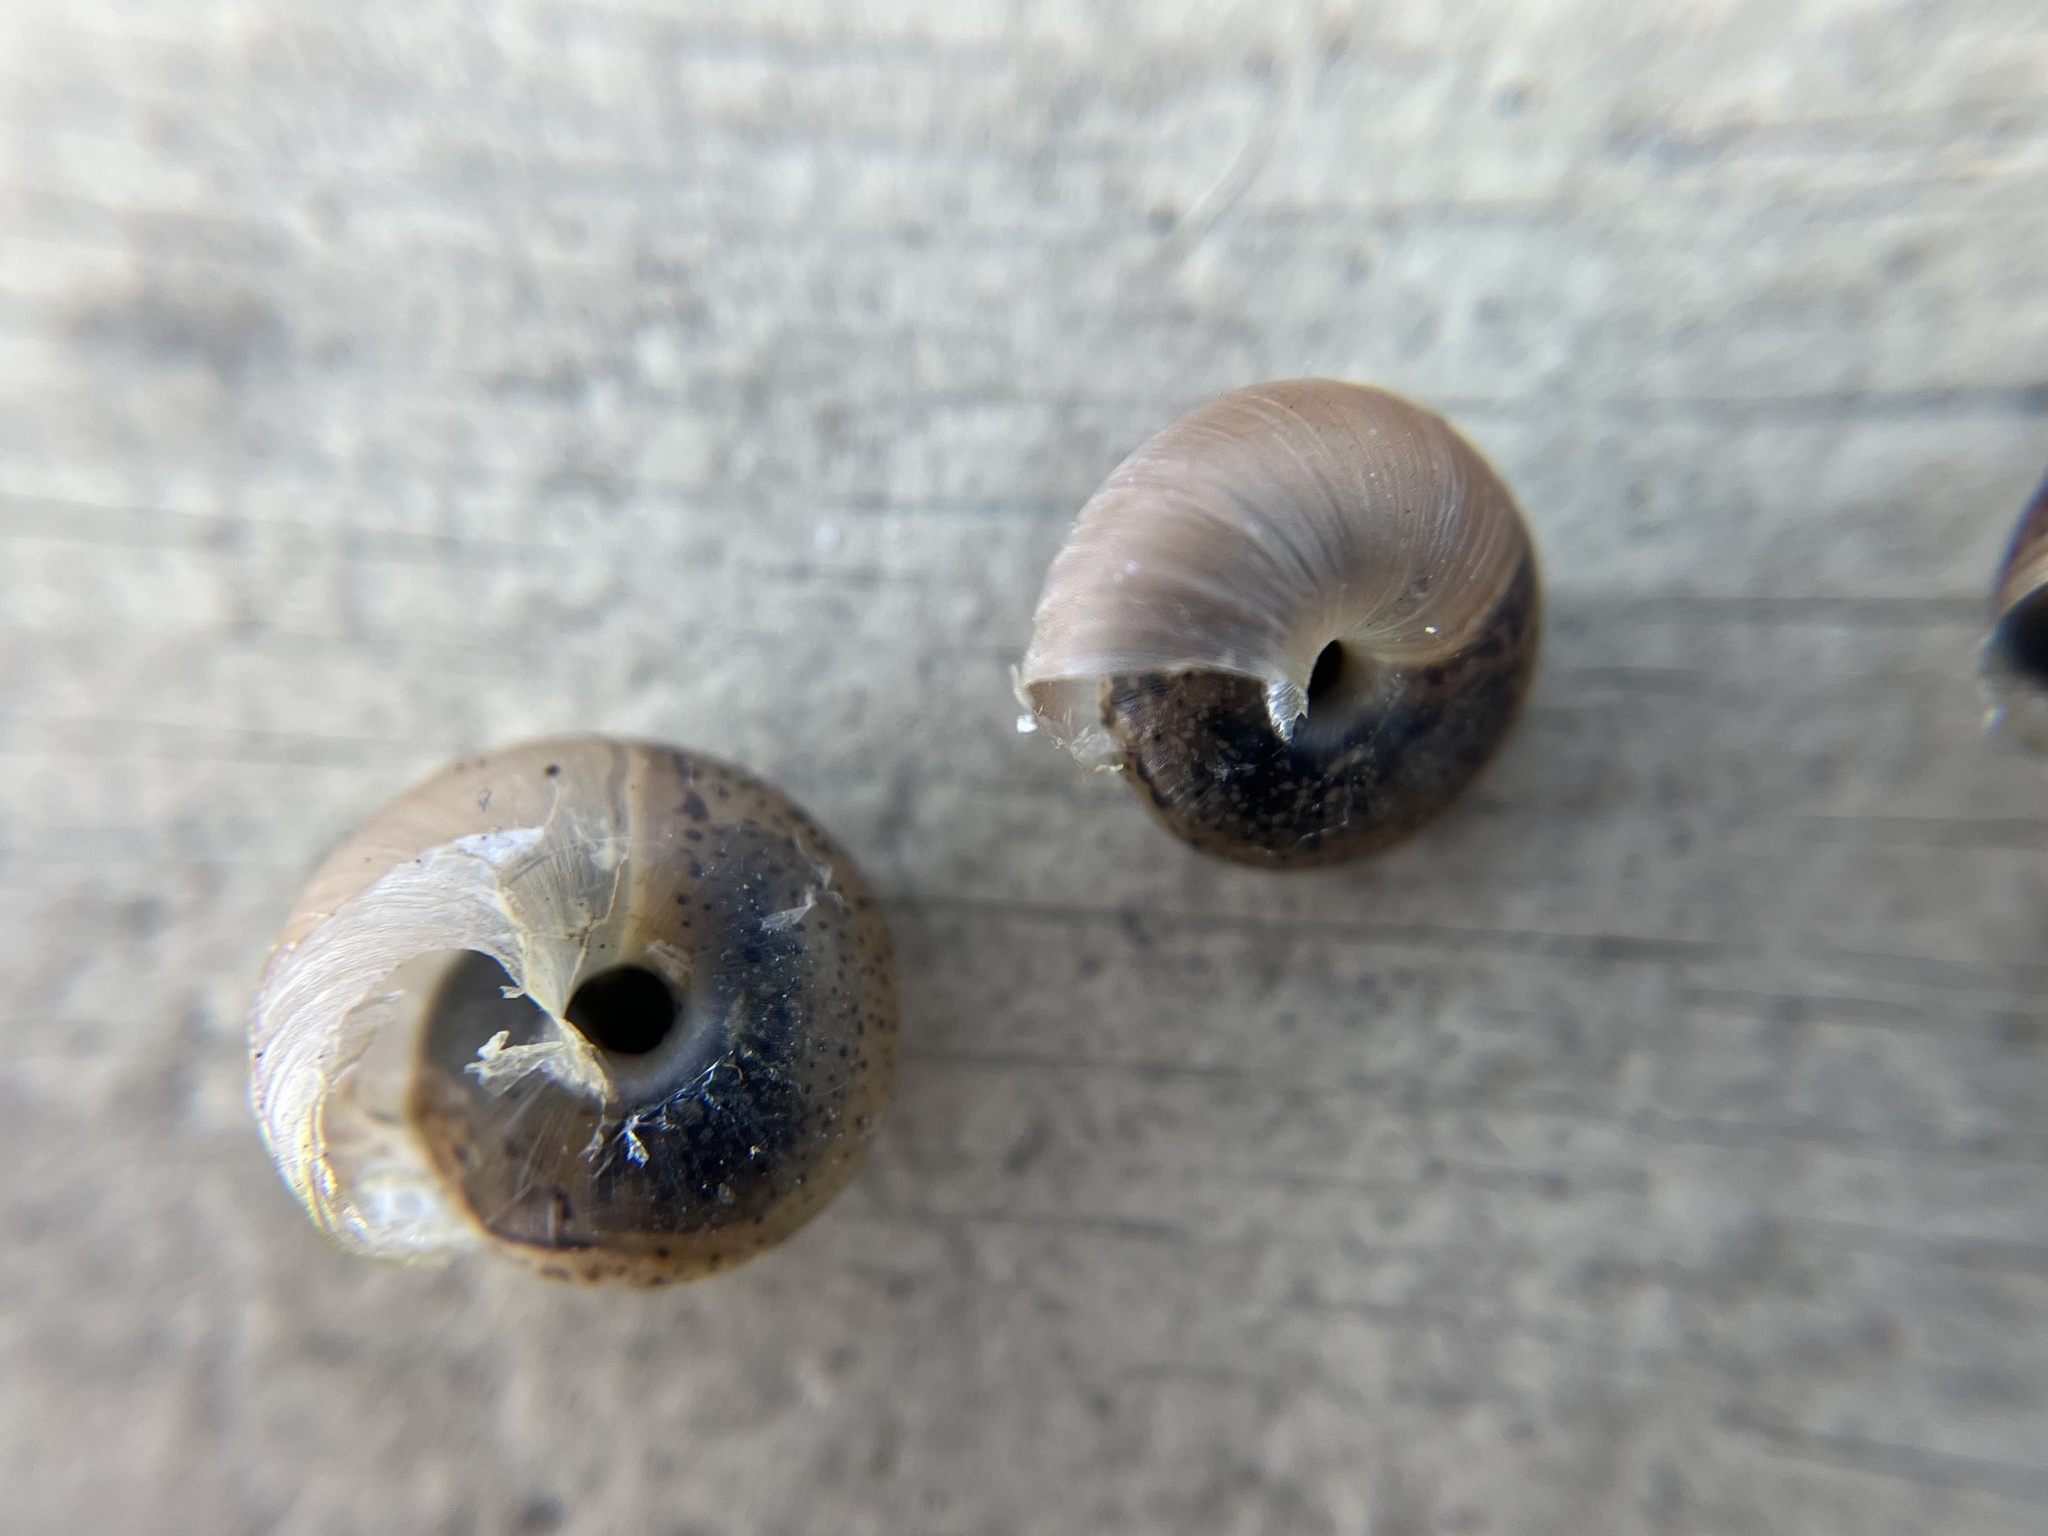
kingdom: Animalia
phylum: Mollusca
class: Gastropoda
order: Stylommatophora
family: Hygromiidae
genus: Urticicola
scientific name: Urticicola umbrosus
